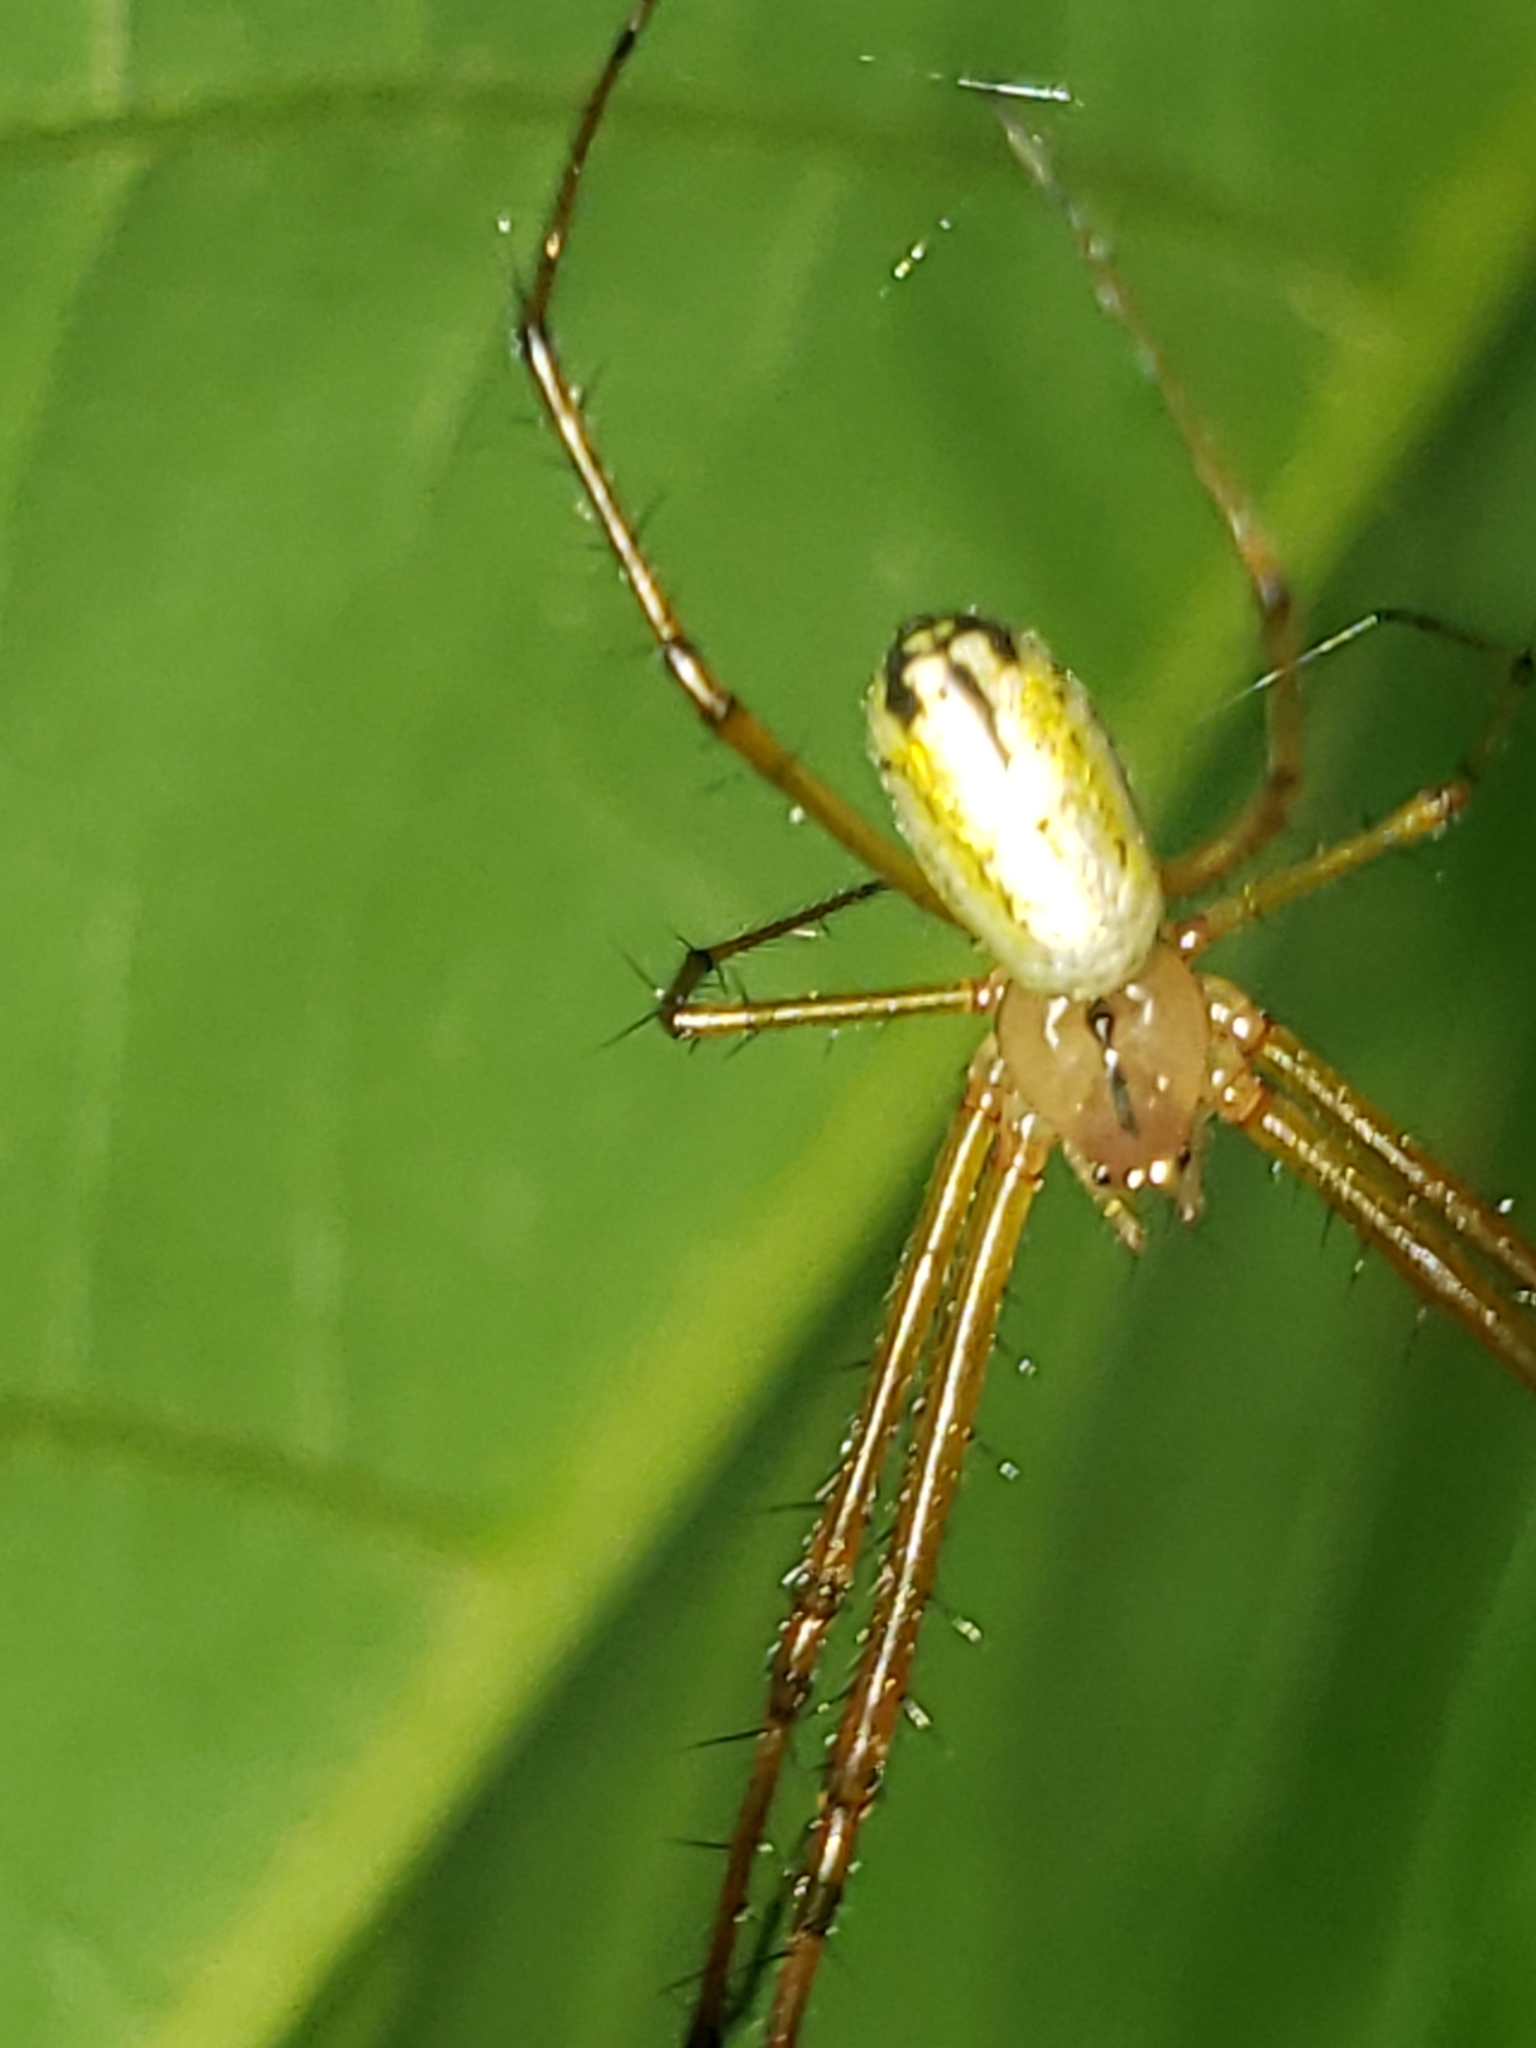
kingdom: Animalia
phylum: Arthropoda
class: Arachnida
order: Araneae
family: Tetragnathidae
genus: Leucauge
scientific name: Leucauge venusta
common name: Longjawed orb weavers
